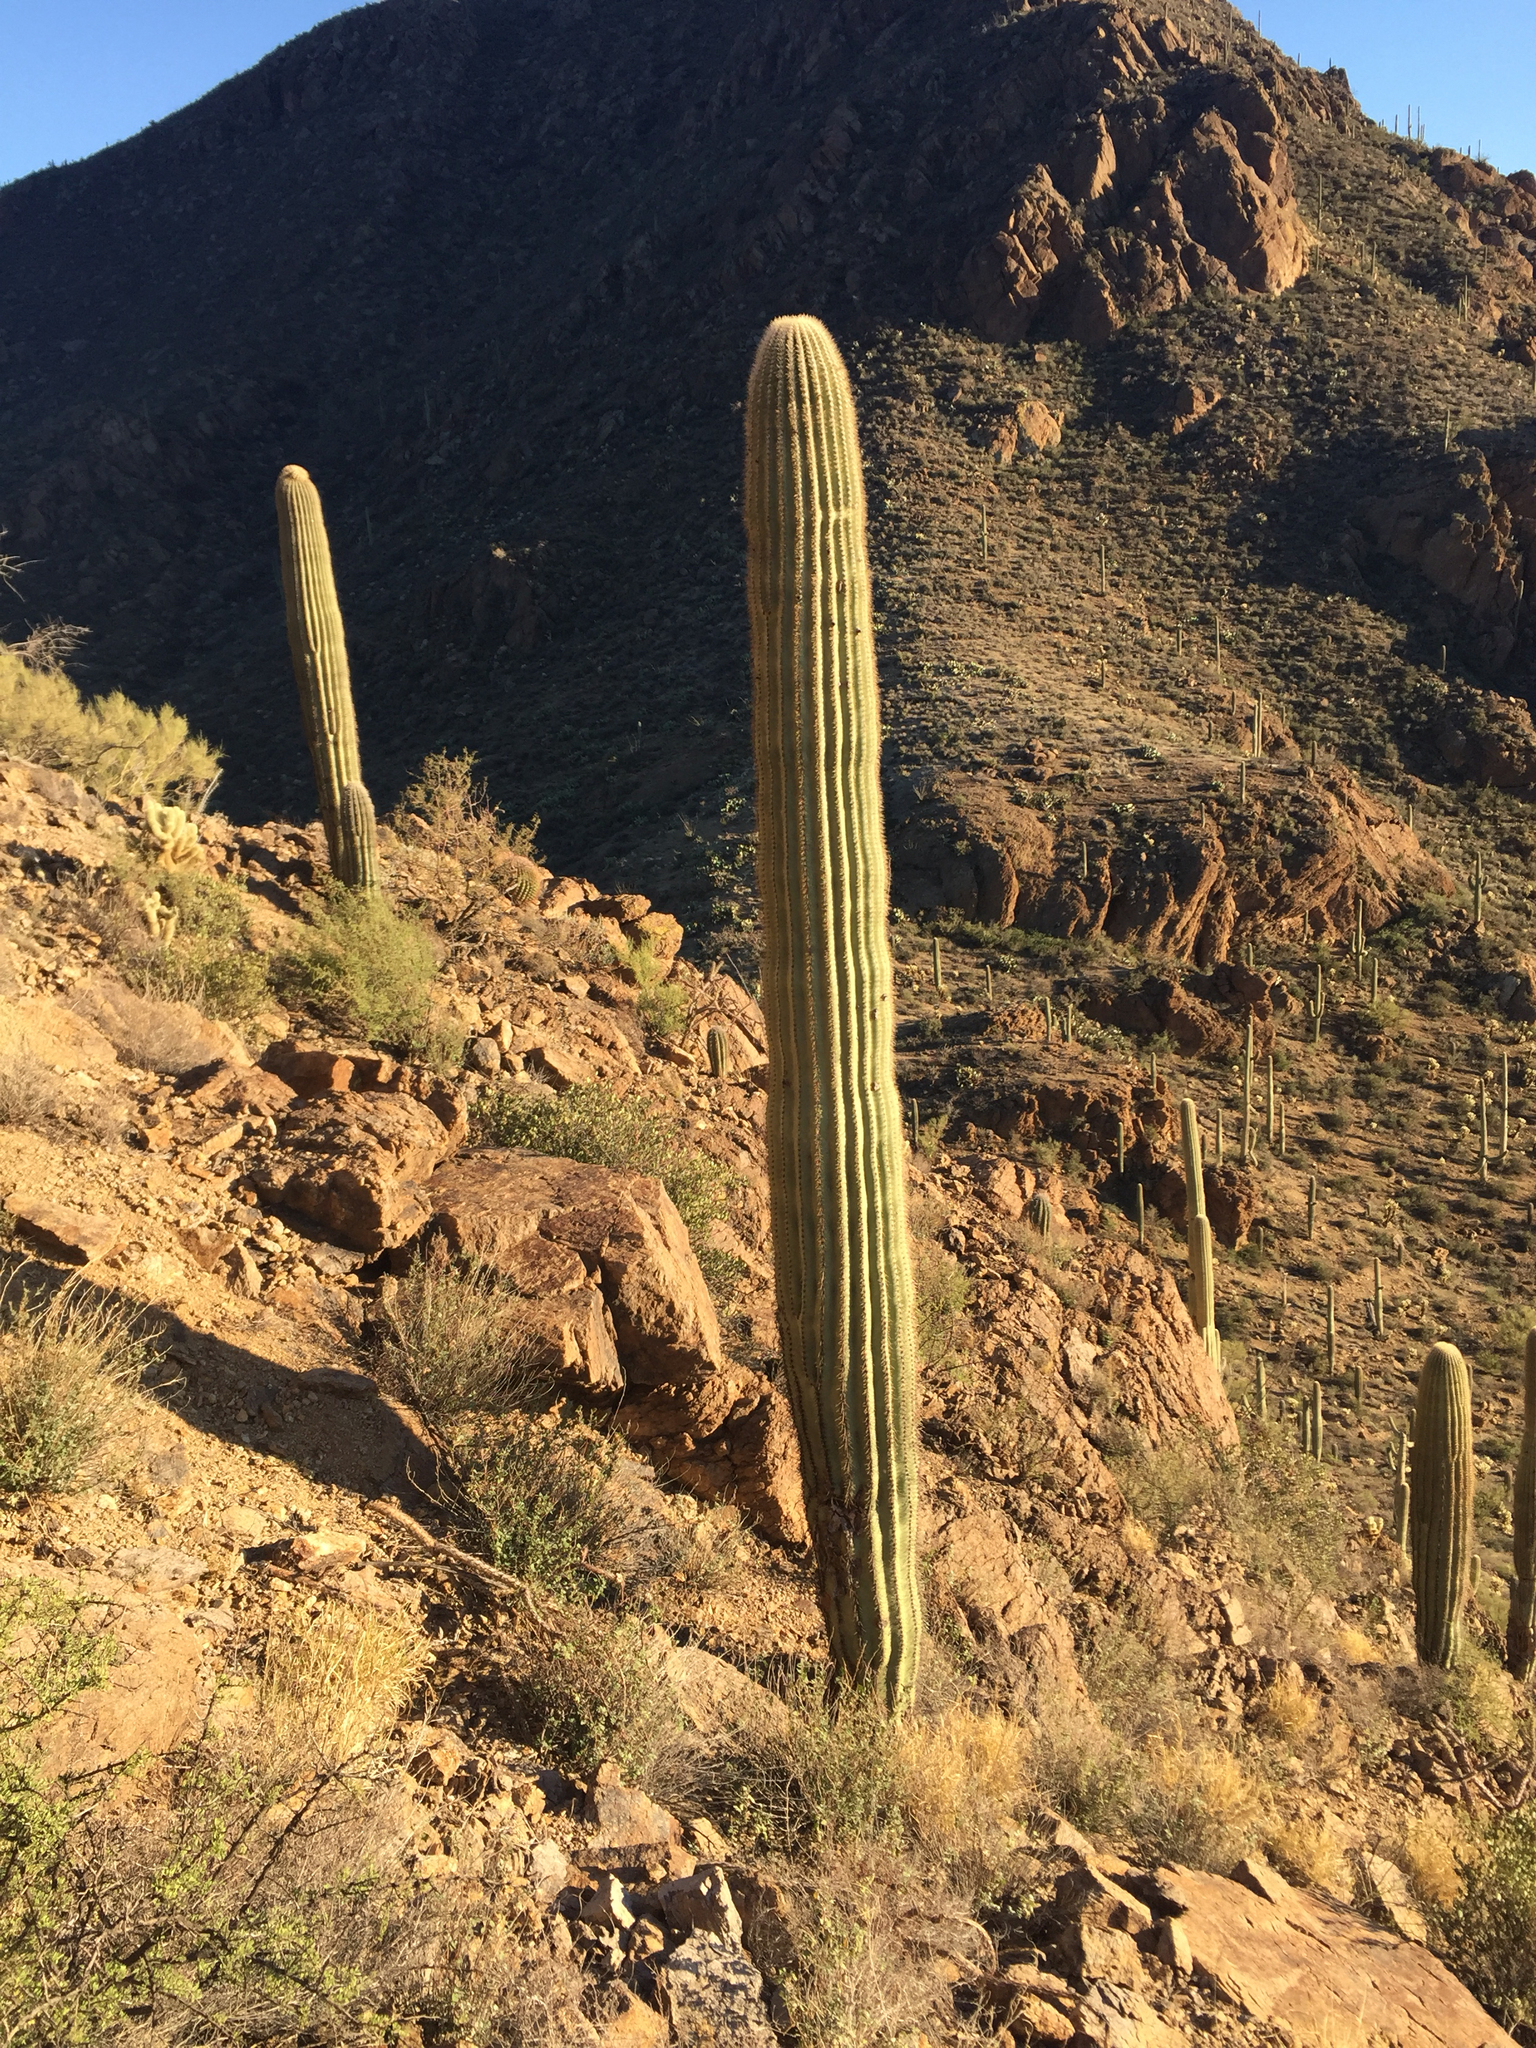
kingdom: Plantae
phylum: Tracheophyta
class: Magnoliopsida
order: Caryophyllales
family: Cactaceae
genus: Carnegiea
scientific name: Carnegiea gigantea
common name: Saguaro
